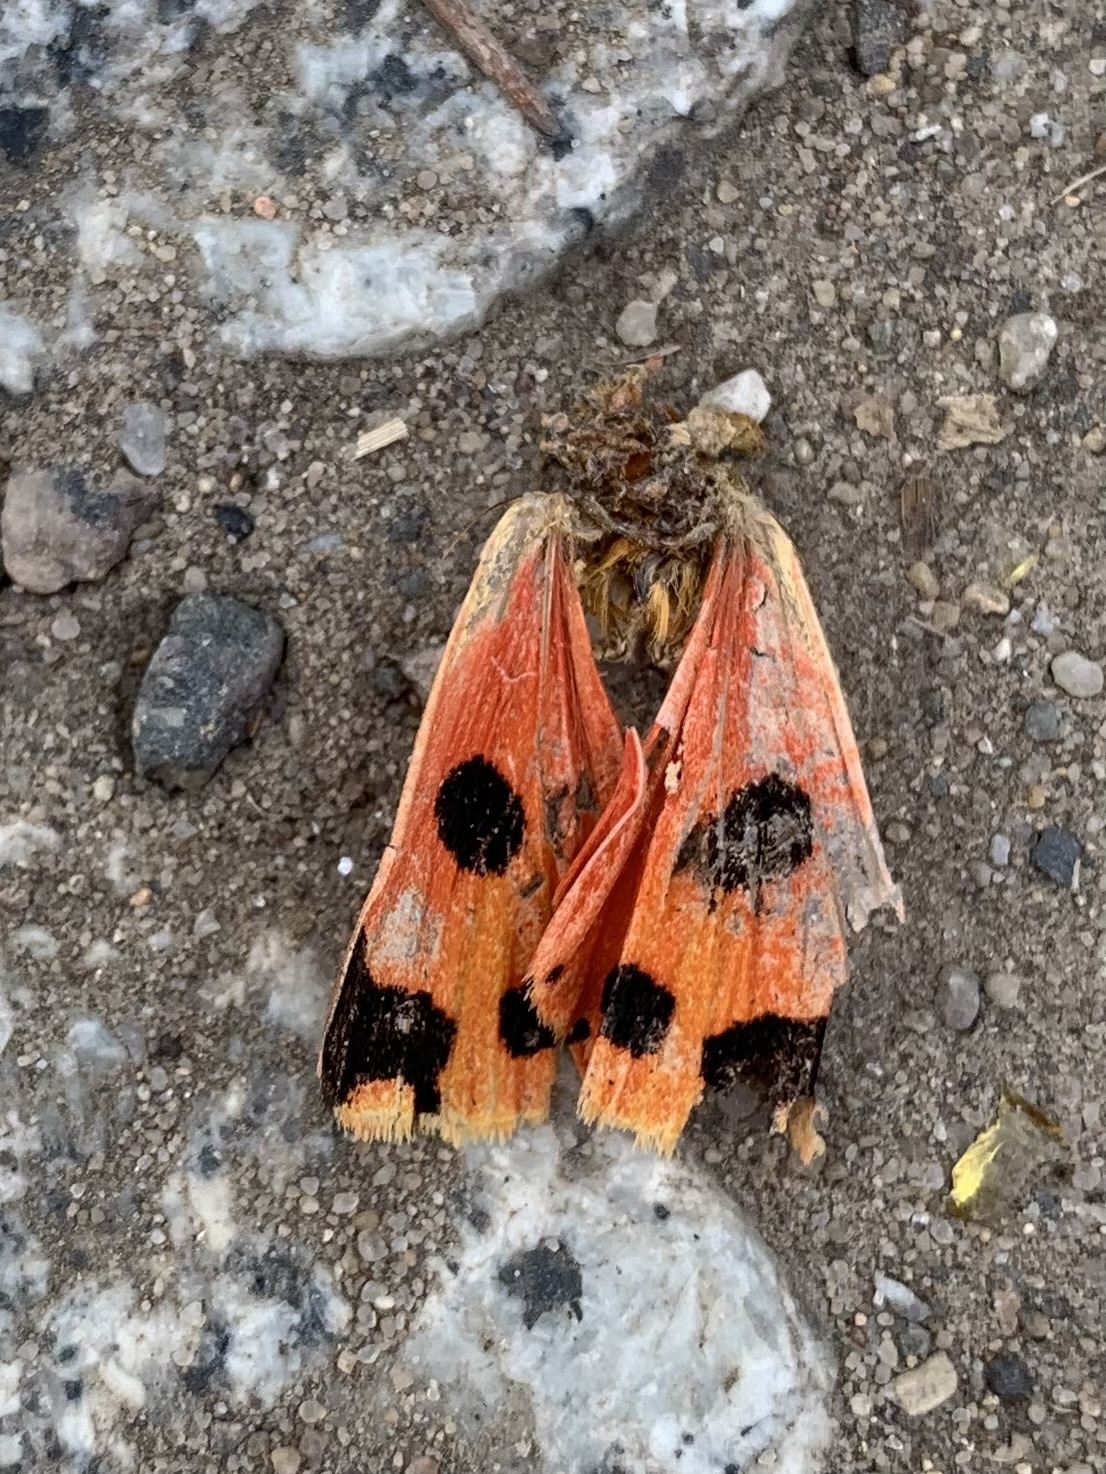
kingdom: Animalia
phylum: Arthropoda
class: Insecta
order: Lepidoptera
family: Erebidae
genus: Euplagia
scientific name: Euplagia quadripunctaria
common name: Jersey tiger
